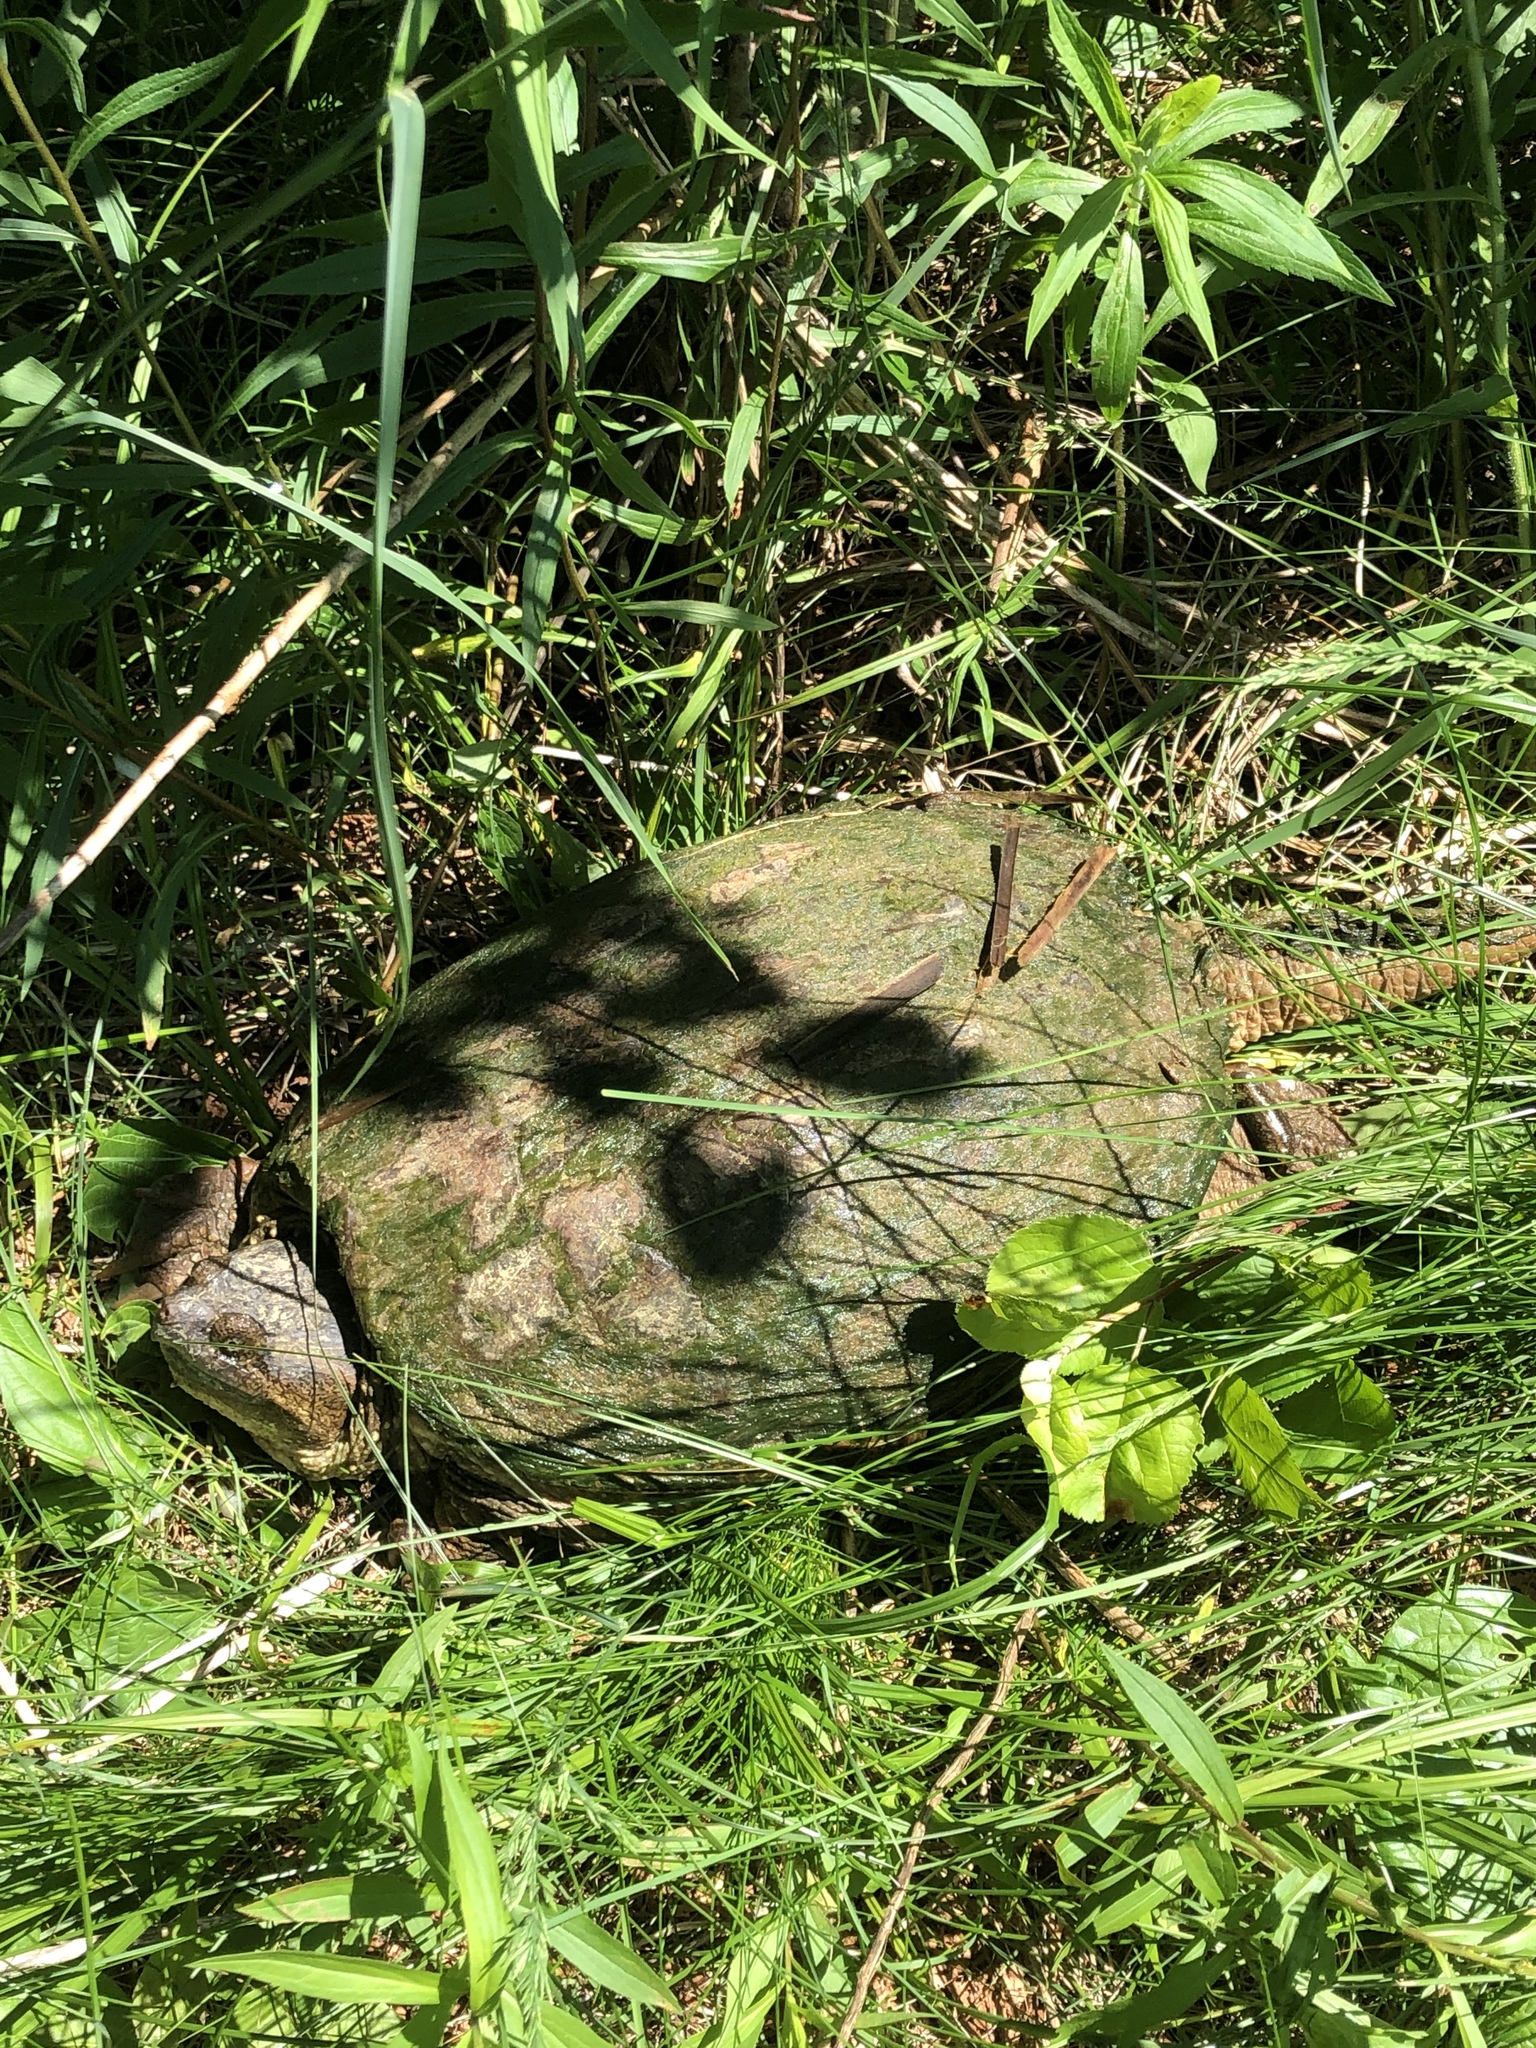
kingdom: Animalia
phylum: Chordata
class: Testudines
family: Chelydridae
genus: Chelydra
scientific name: Chelydra serpentina
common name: Common snapping turtle
